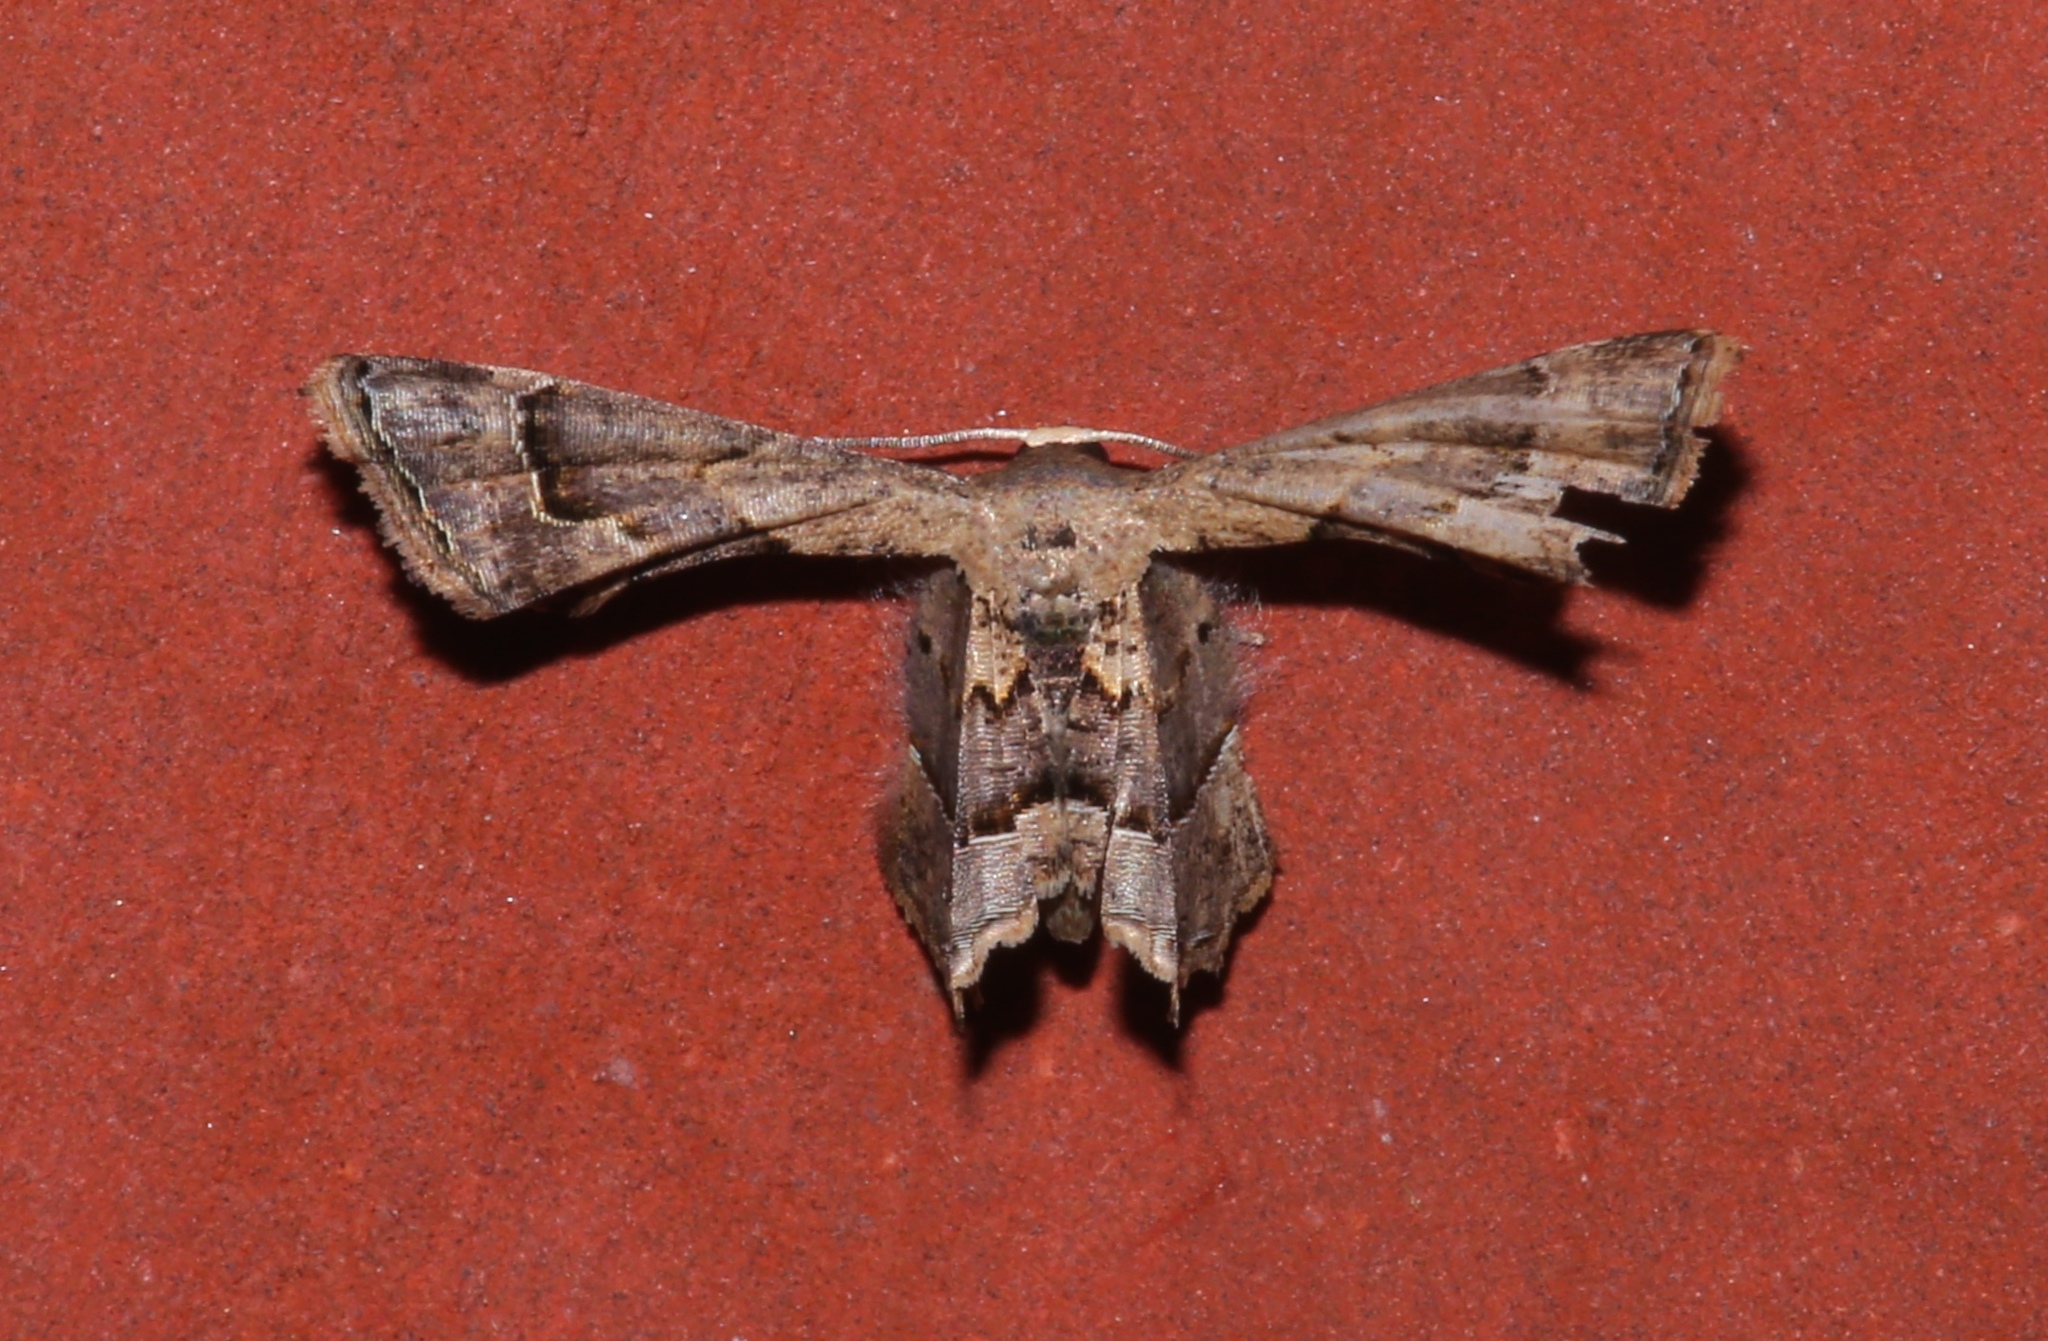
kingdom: Animalia
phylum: Arthropoda
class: Insecta
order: Lepidoptera
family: Uraniidae
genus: Antiplecta
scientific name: Antiplecta triangularis
